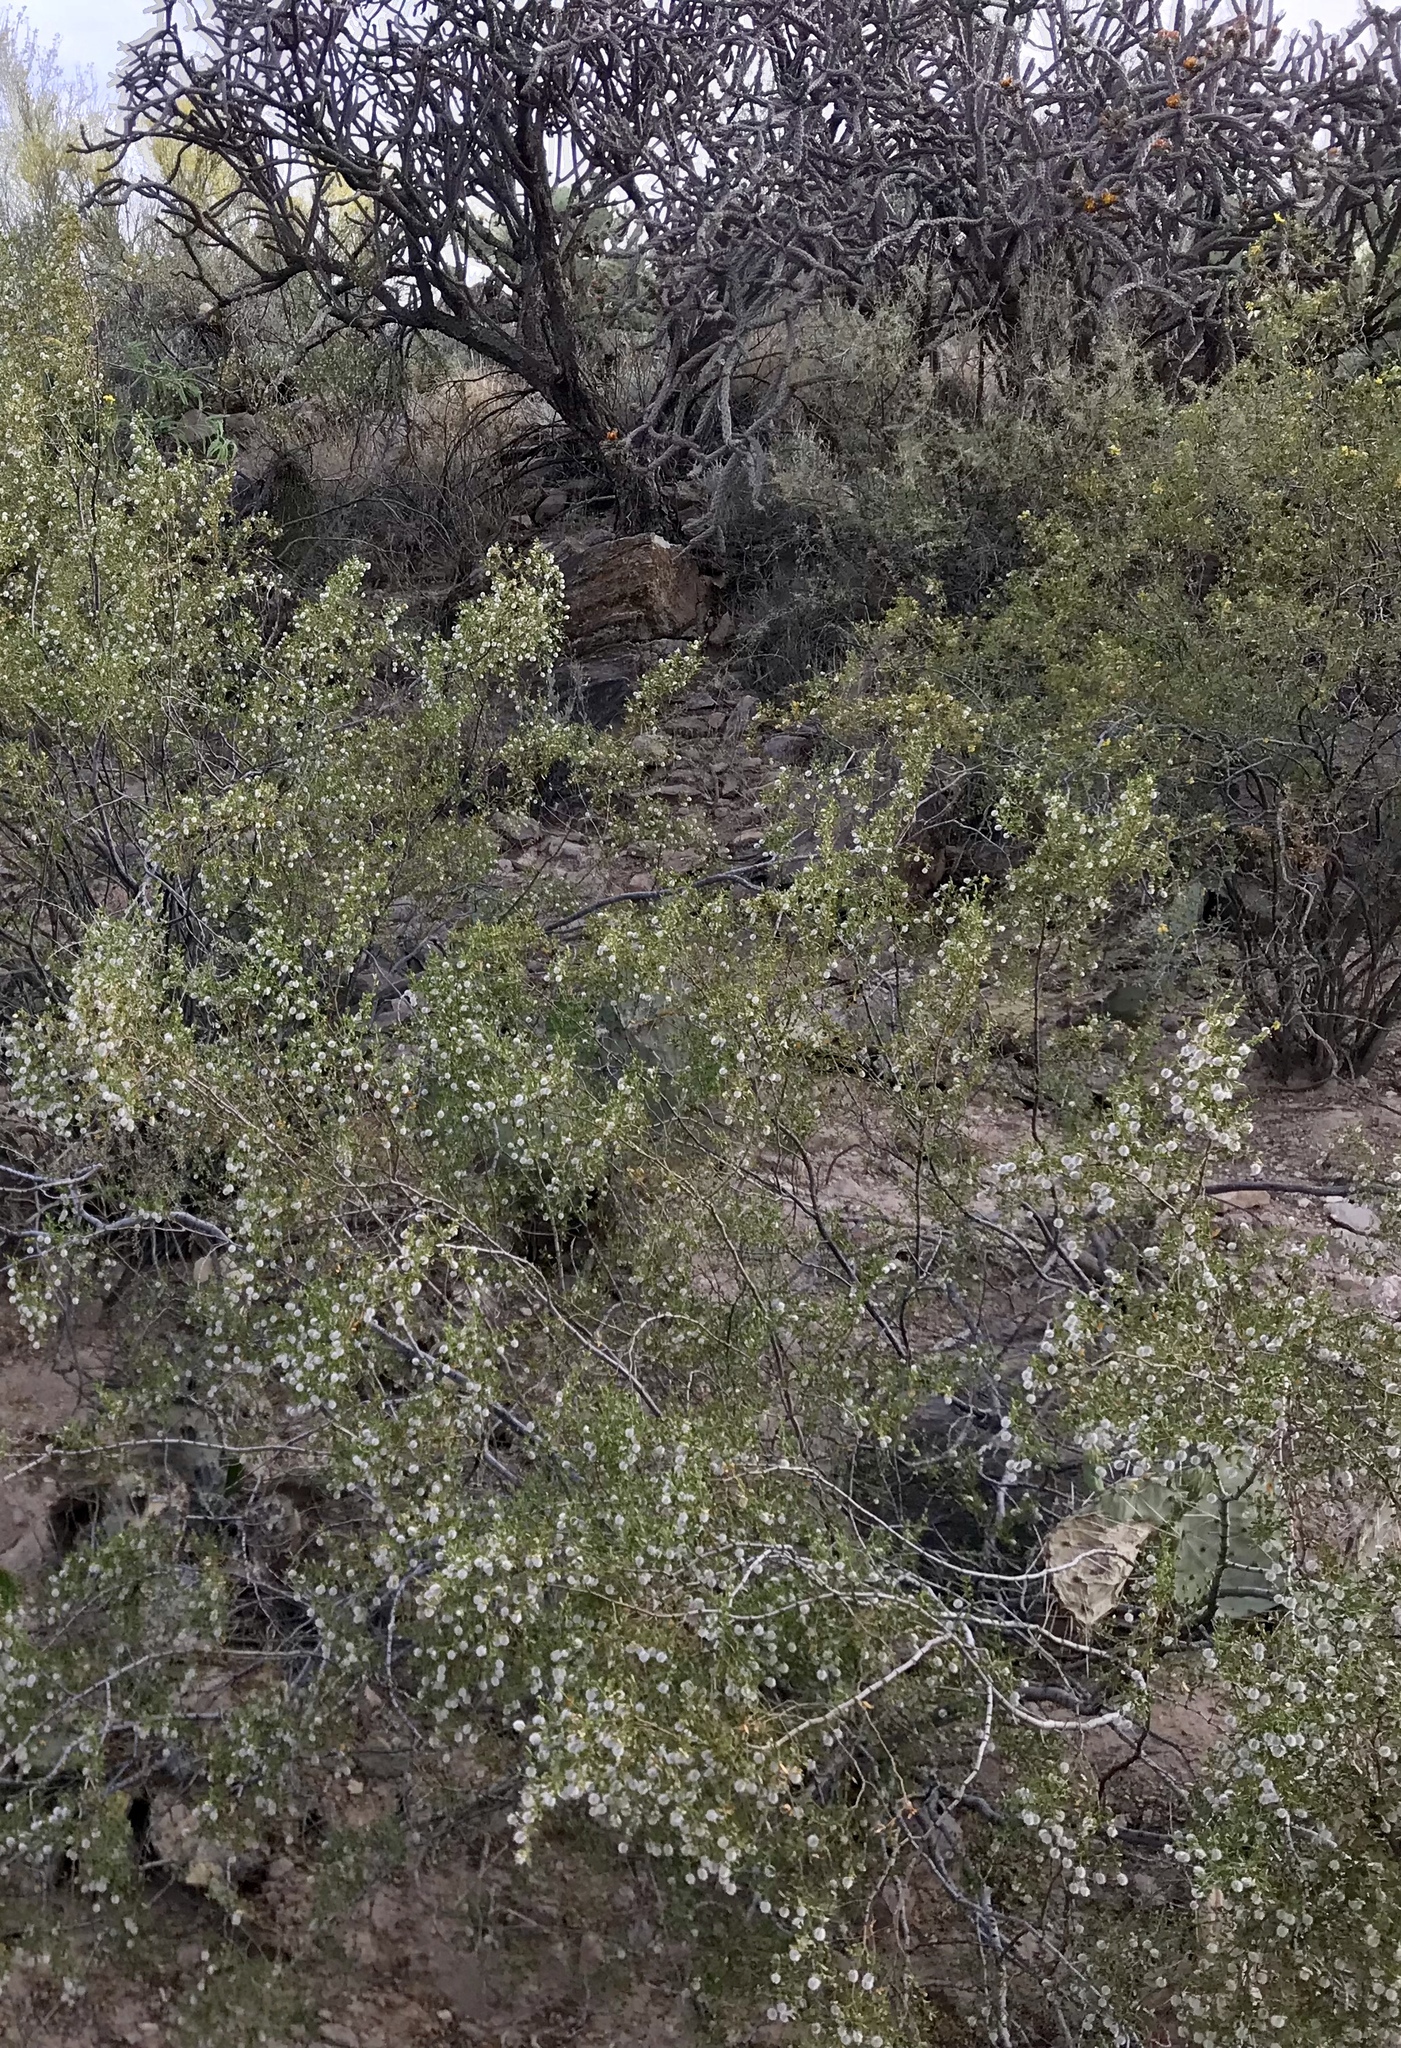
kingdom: Plantae
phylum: Tracheophyta
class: Magnoliopsida
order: Zygophyllales
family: Zygophyllaceae
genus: Larrea
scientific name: Larrea tridentata
